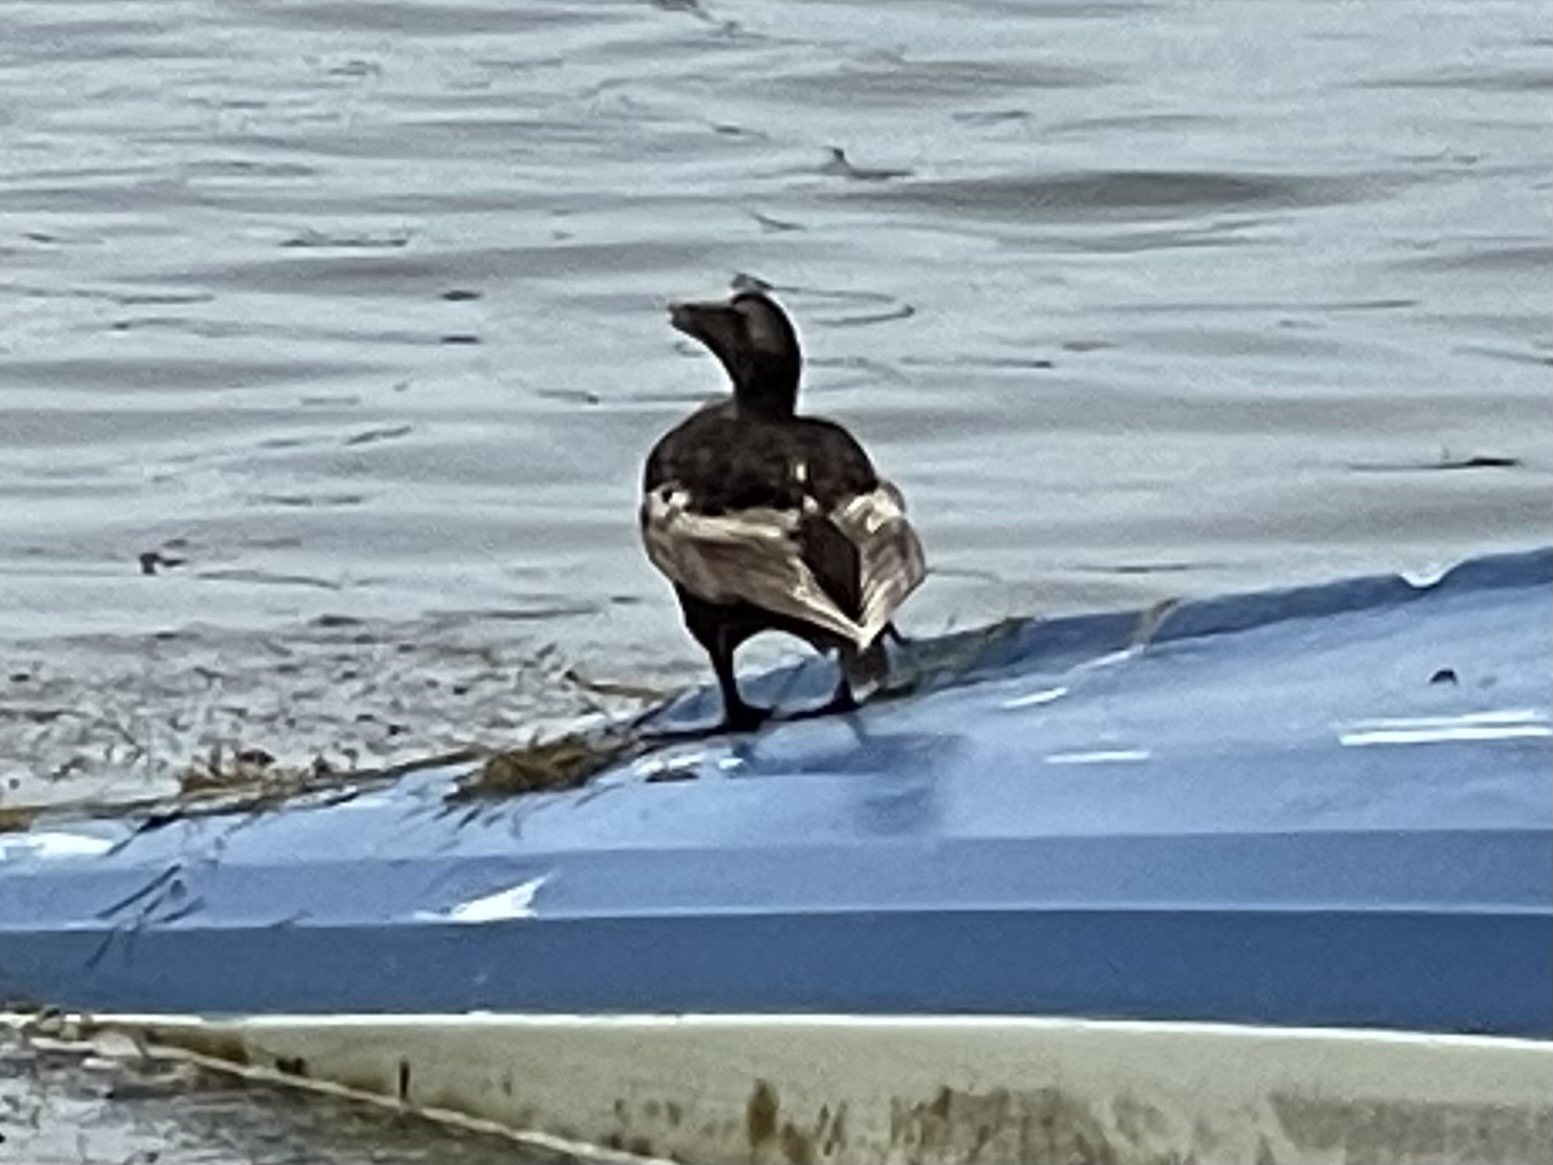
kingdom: Animalia
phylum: Chordata
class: Aves
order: Anseriformes
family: Anatidae
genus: Somateria
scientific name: Somateria mollissima
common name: Common eider
